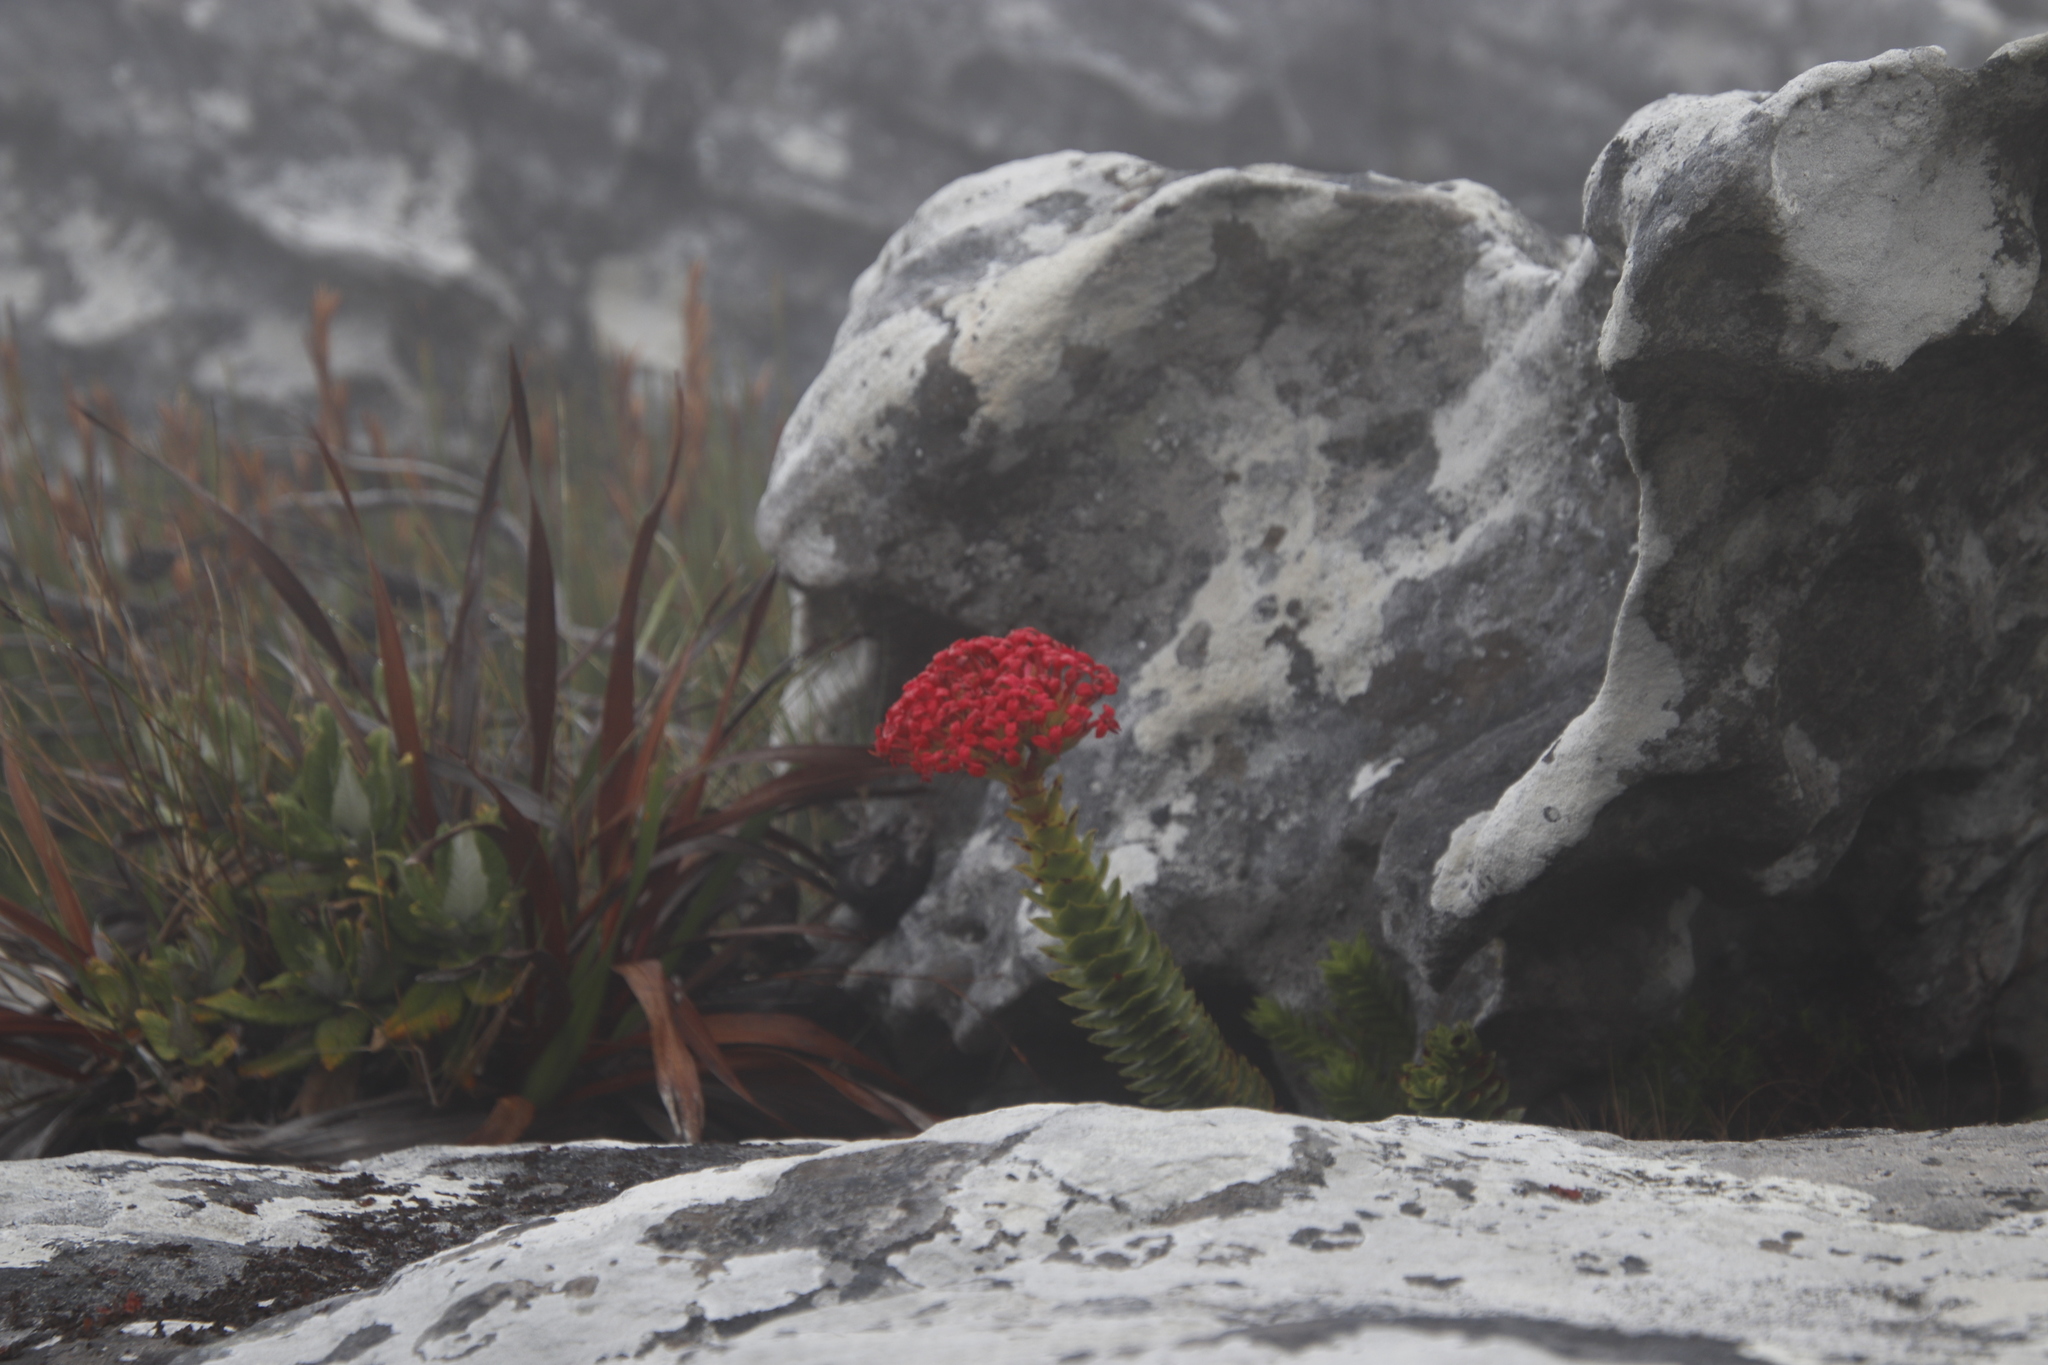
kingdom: Plantae
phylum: Tracheophyta
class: Magnoliopsida
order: Saxifragales
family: Crassulaceae
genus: Crassula
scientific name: Crassula coccinea
